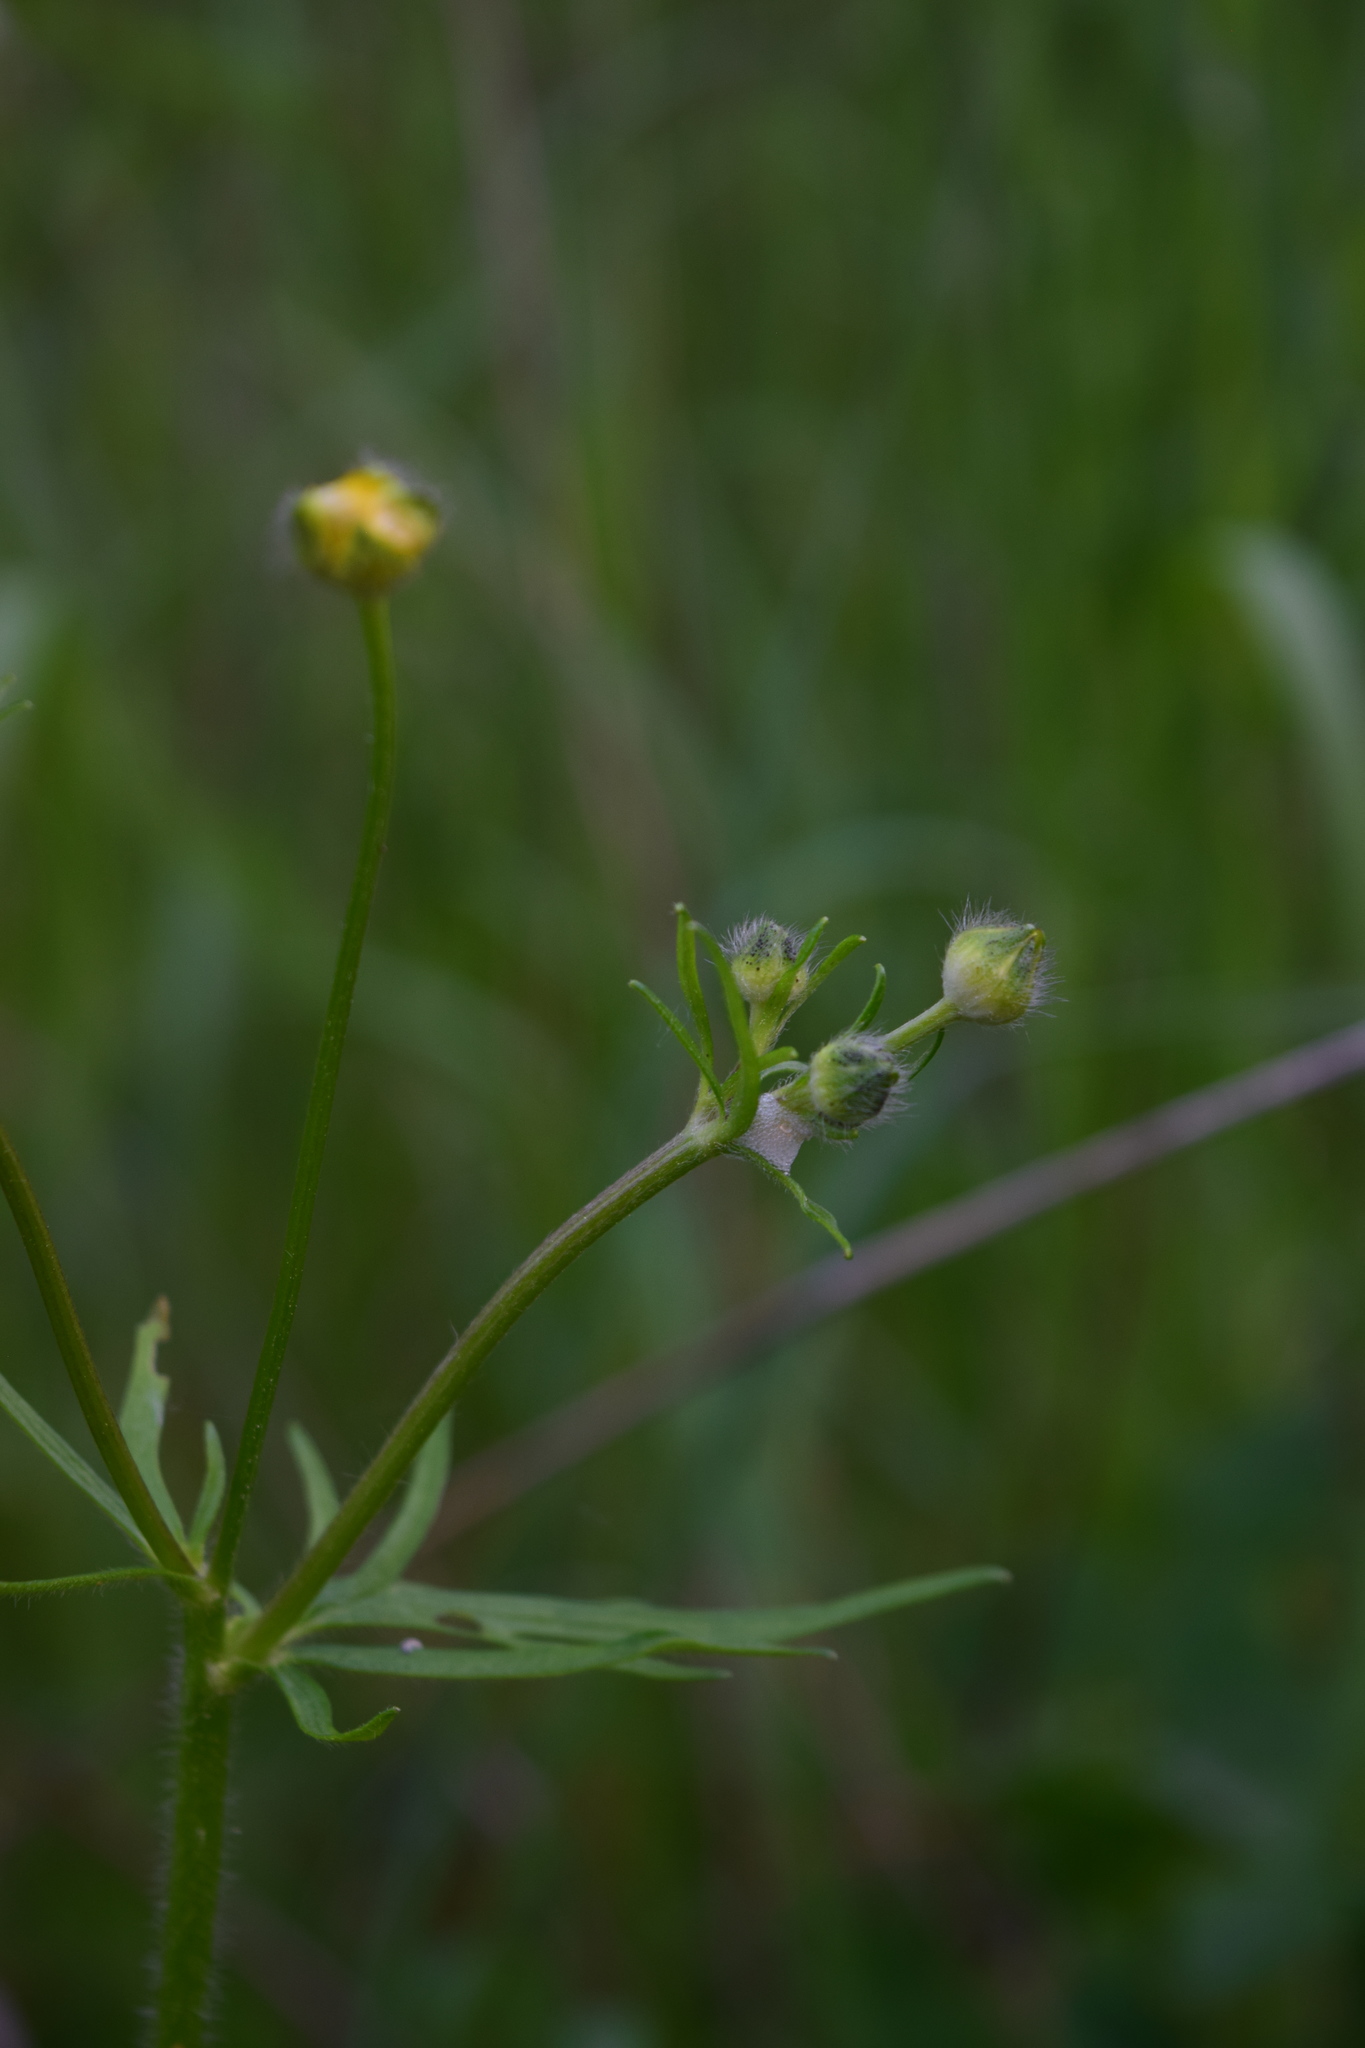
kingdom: Plantae
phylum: Tracheophyta
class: Magnoliopsida
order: Ranunculales
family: Ranunculaceae
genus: Ranunculus
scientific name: Ranunculus polyanthemos
